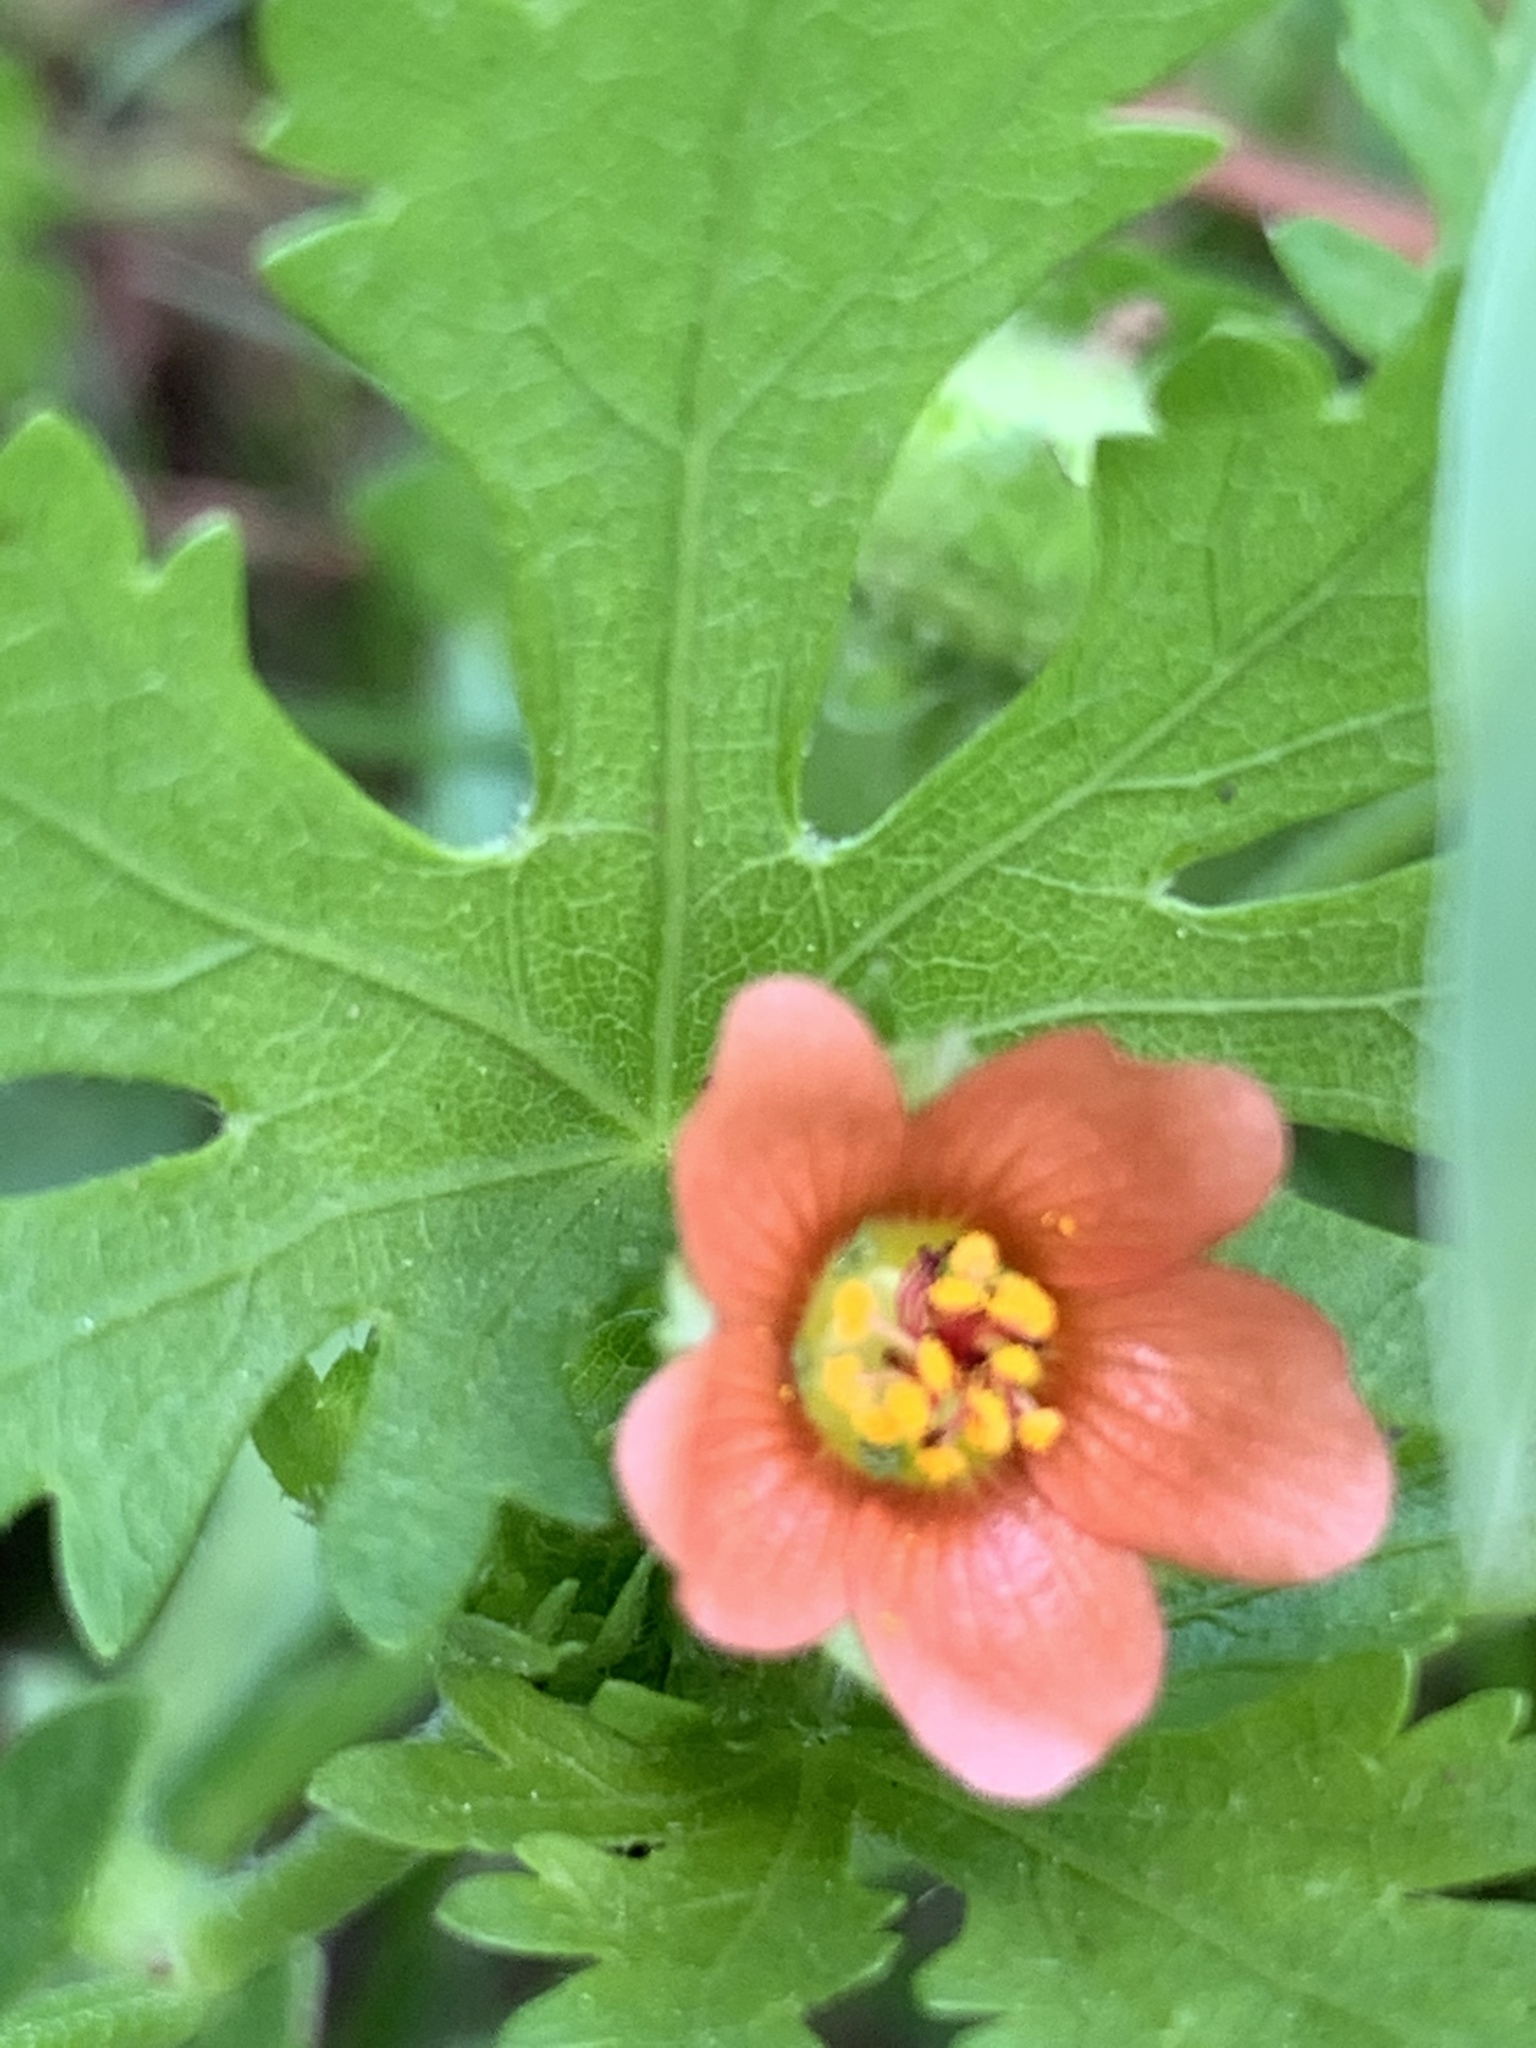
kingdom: Plantae
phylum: Tracheophyta
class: Magnoliopsida
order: Malvales
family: Malvaceae
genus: Modiola
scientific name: Modiola caroliniana
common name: Carolina bristlemallow
